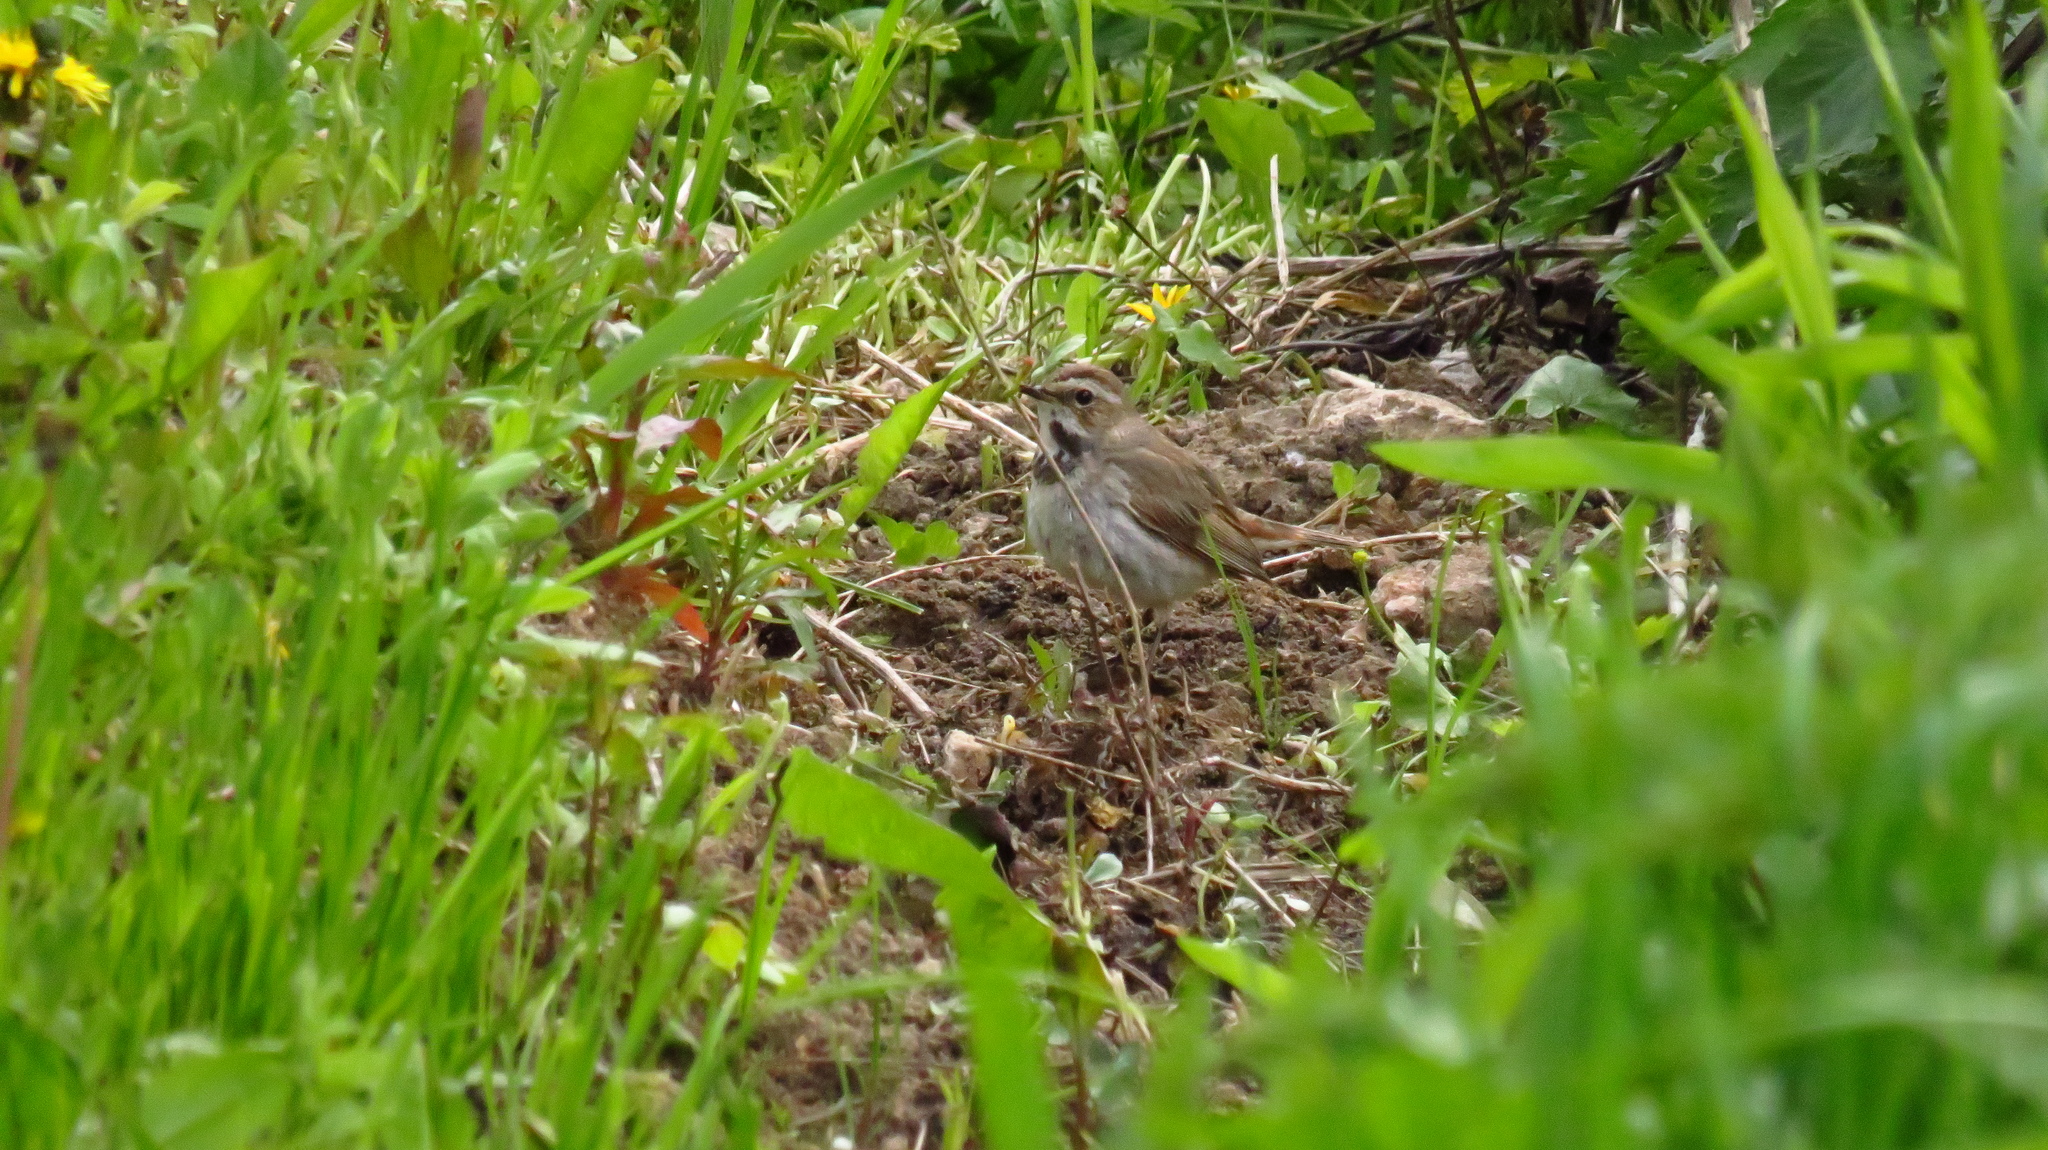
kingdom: Animalia
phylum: Chordata
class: Aves
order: Passeriformes
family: Muscicapidae
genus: Luscinia
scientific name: Luscinia svecica
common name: Bluethroat
